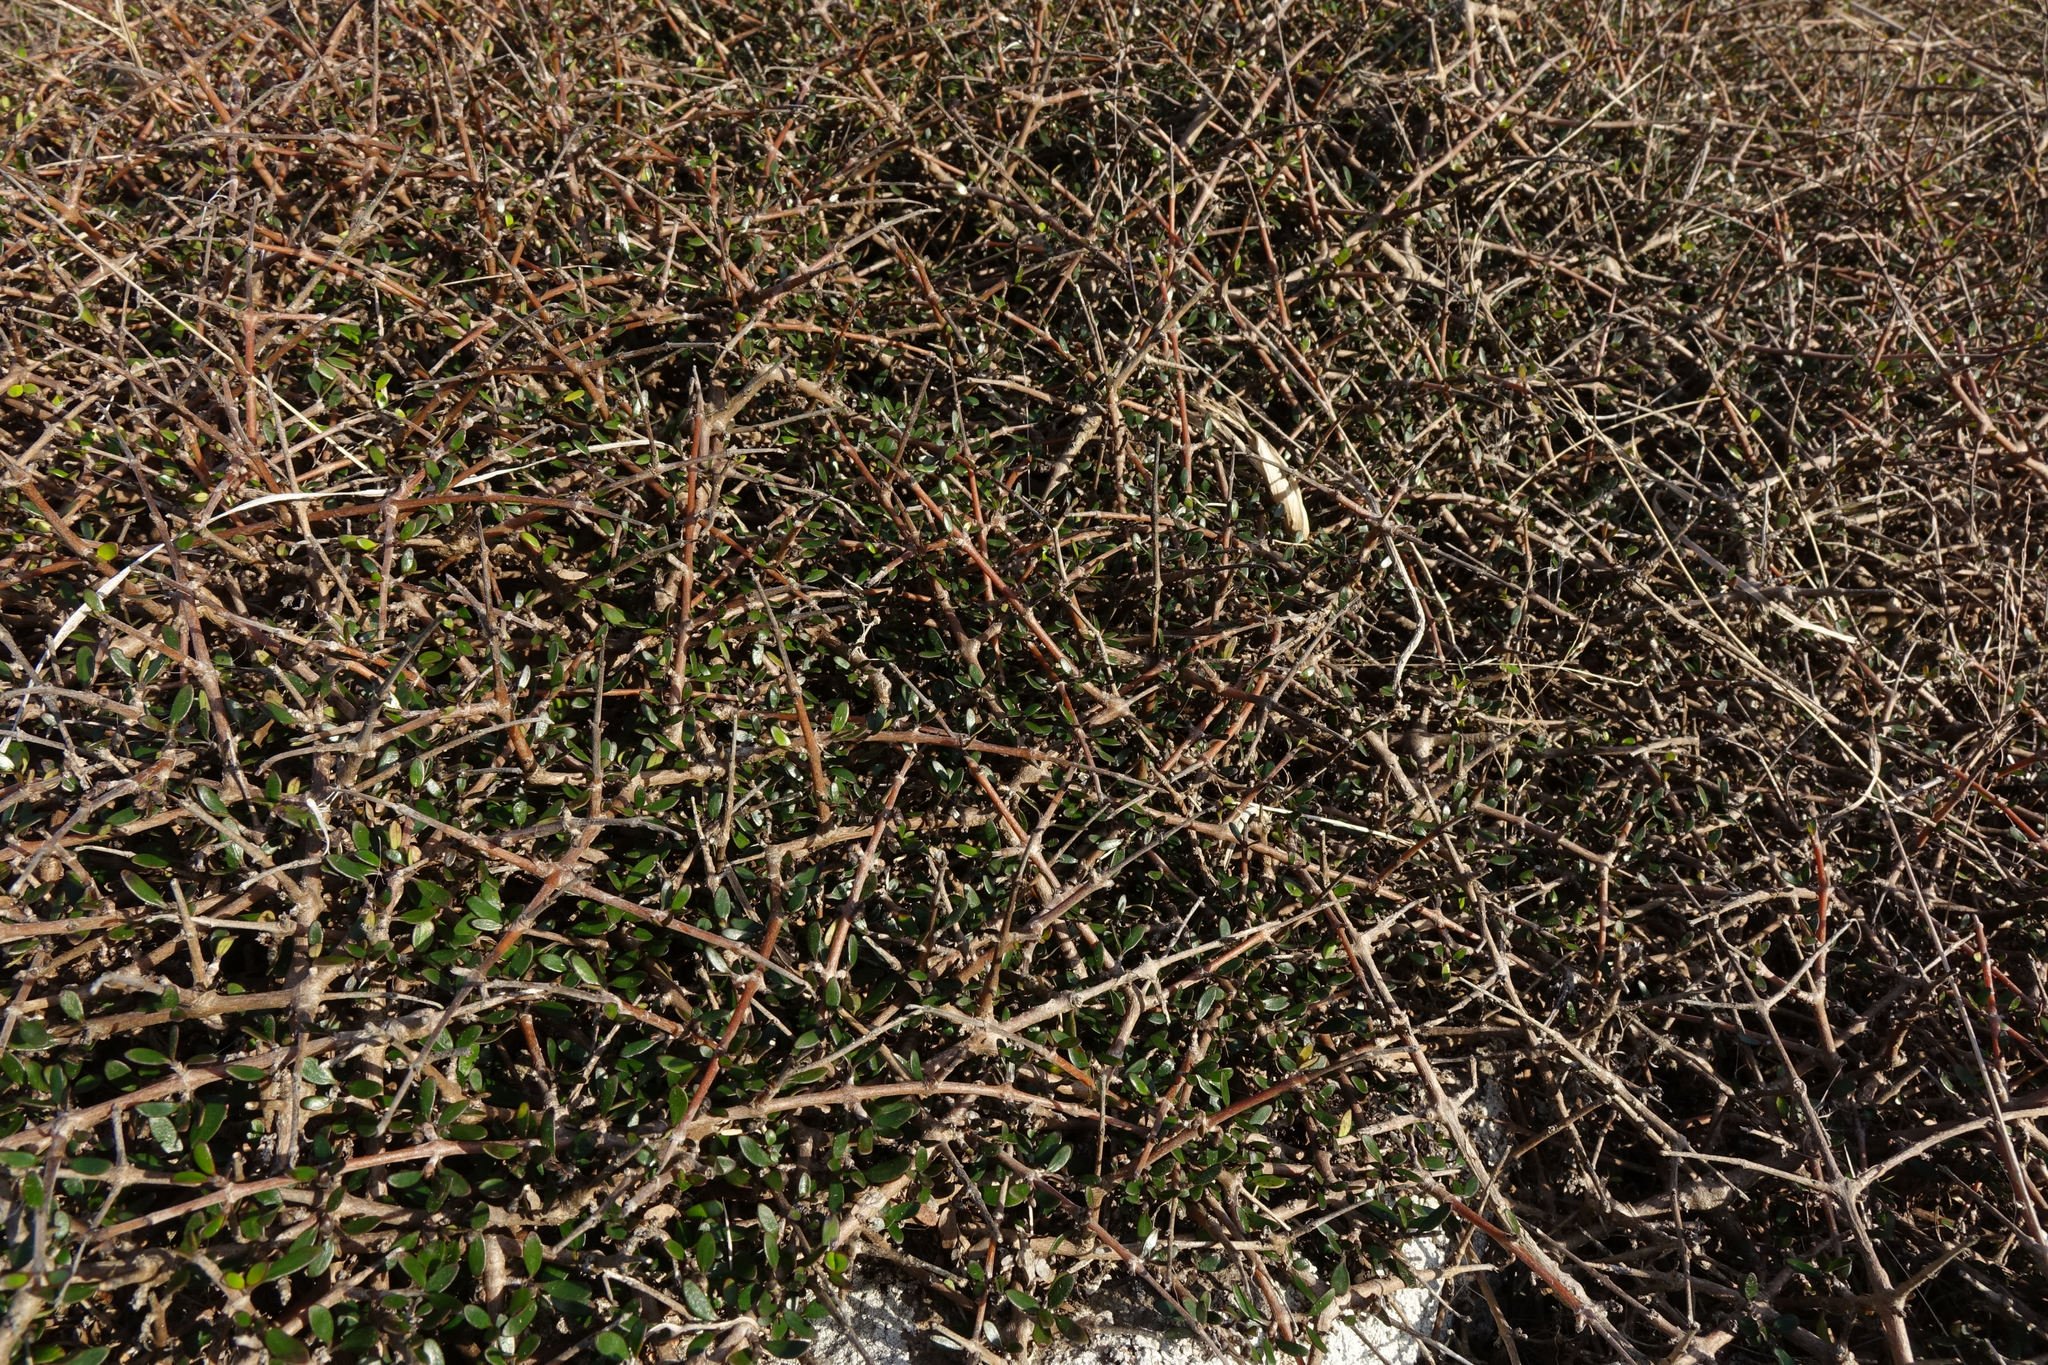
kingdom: Plantae
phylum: Tracheophyta
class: Magnoliopsida
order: Gentianales
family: Rubiaceae
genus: Coprosma
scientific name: Coprosma propinqua
